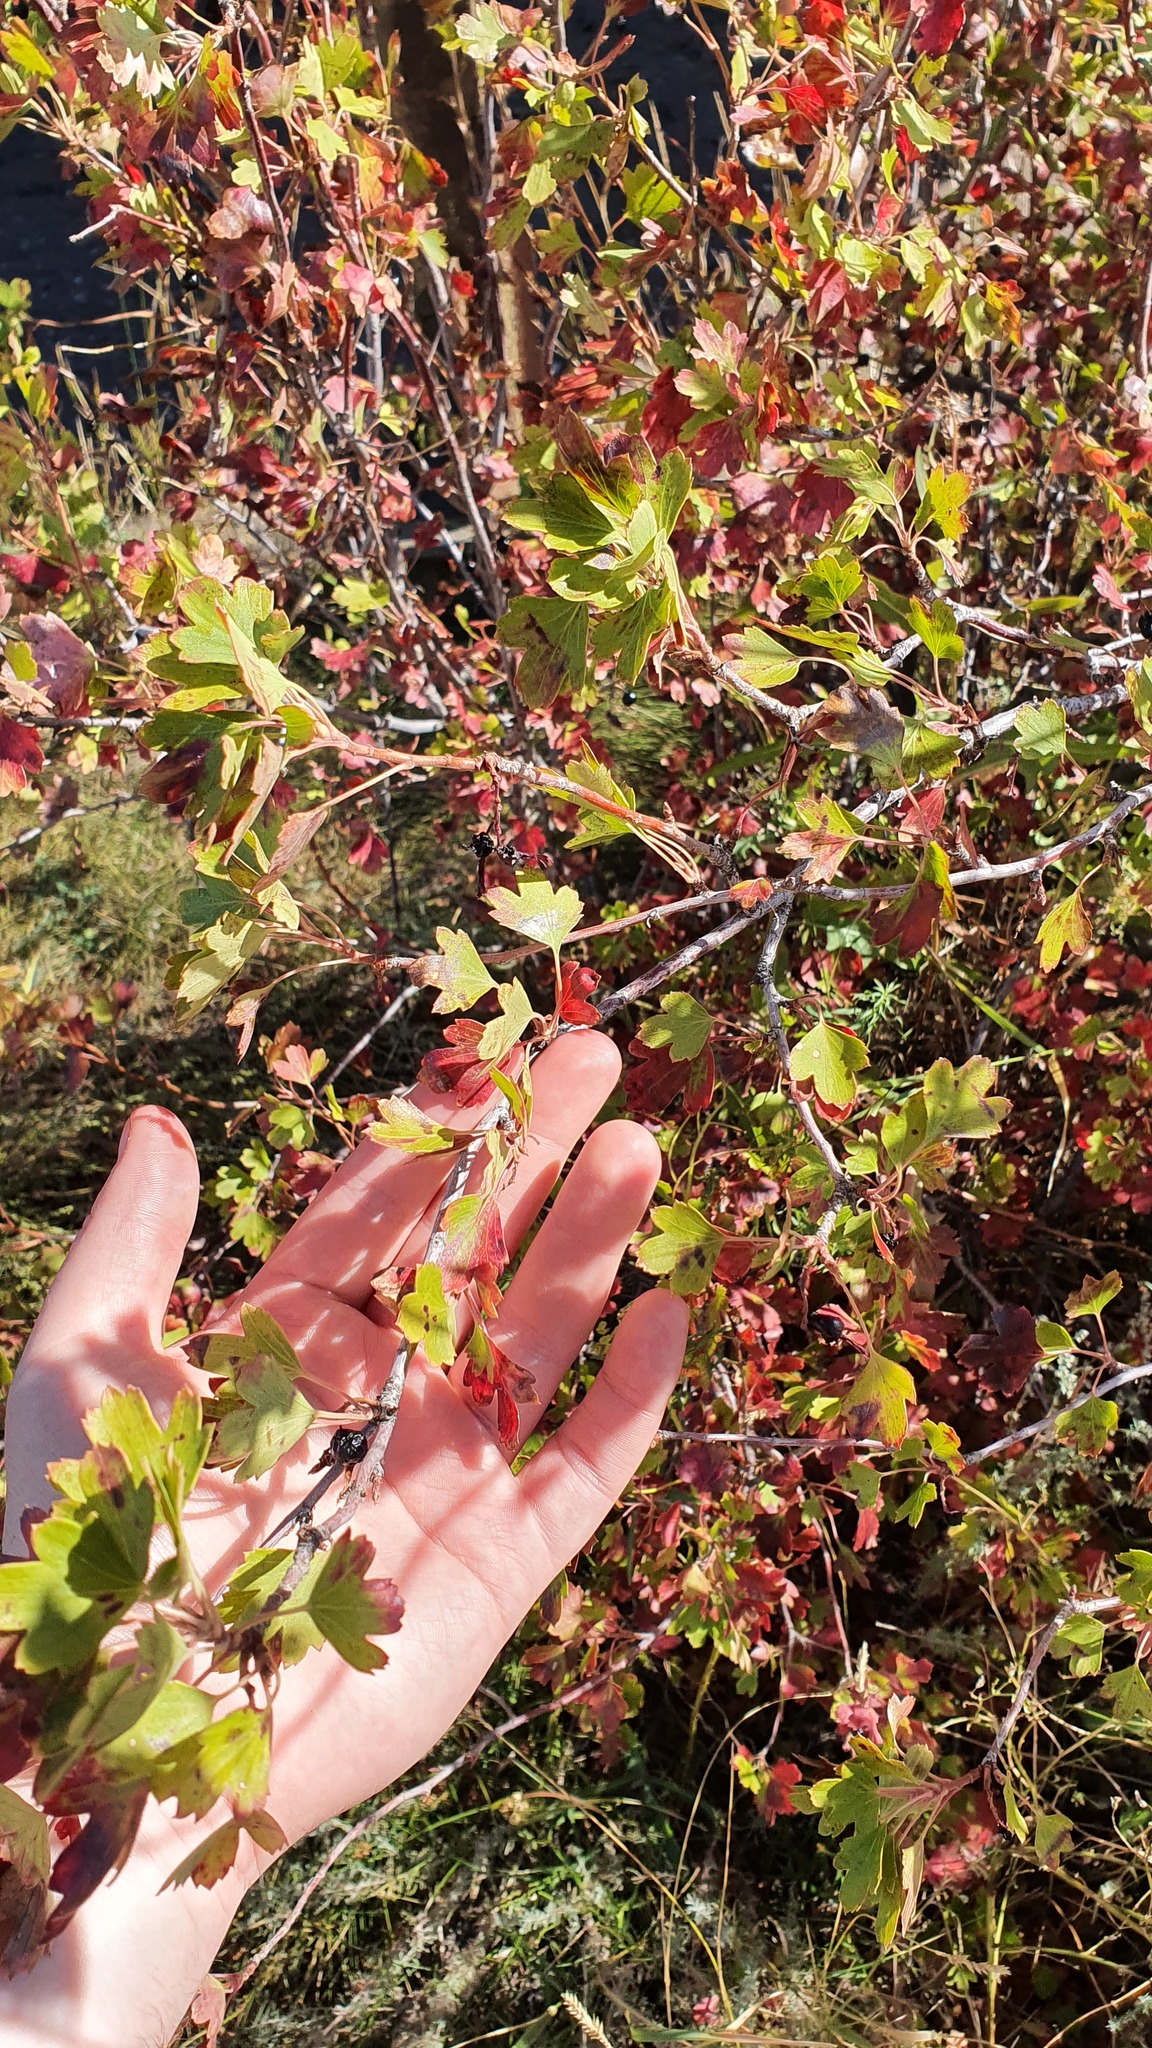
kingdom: Plantae
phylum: Tracheophyta
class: Magnoliopsida
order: Saxifragales
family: Grossulariaceae
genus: Ribes
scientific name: Ribes aureum
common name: Golden currant
